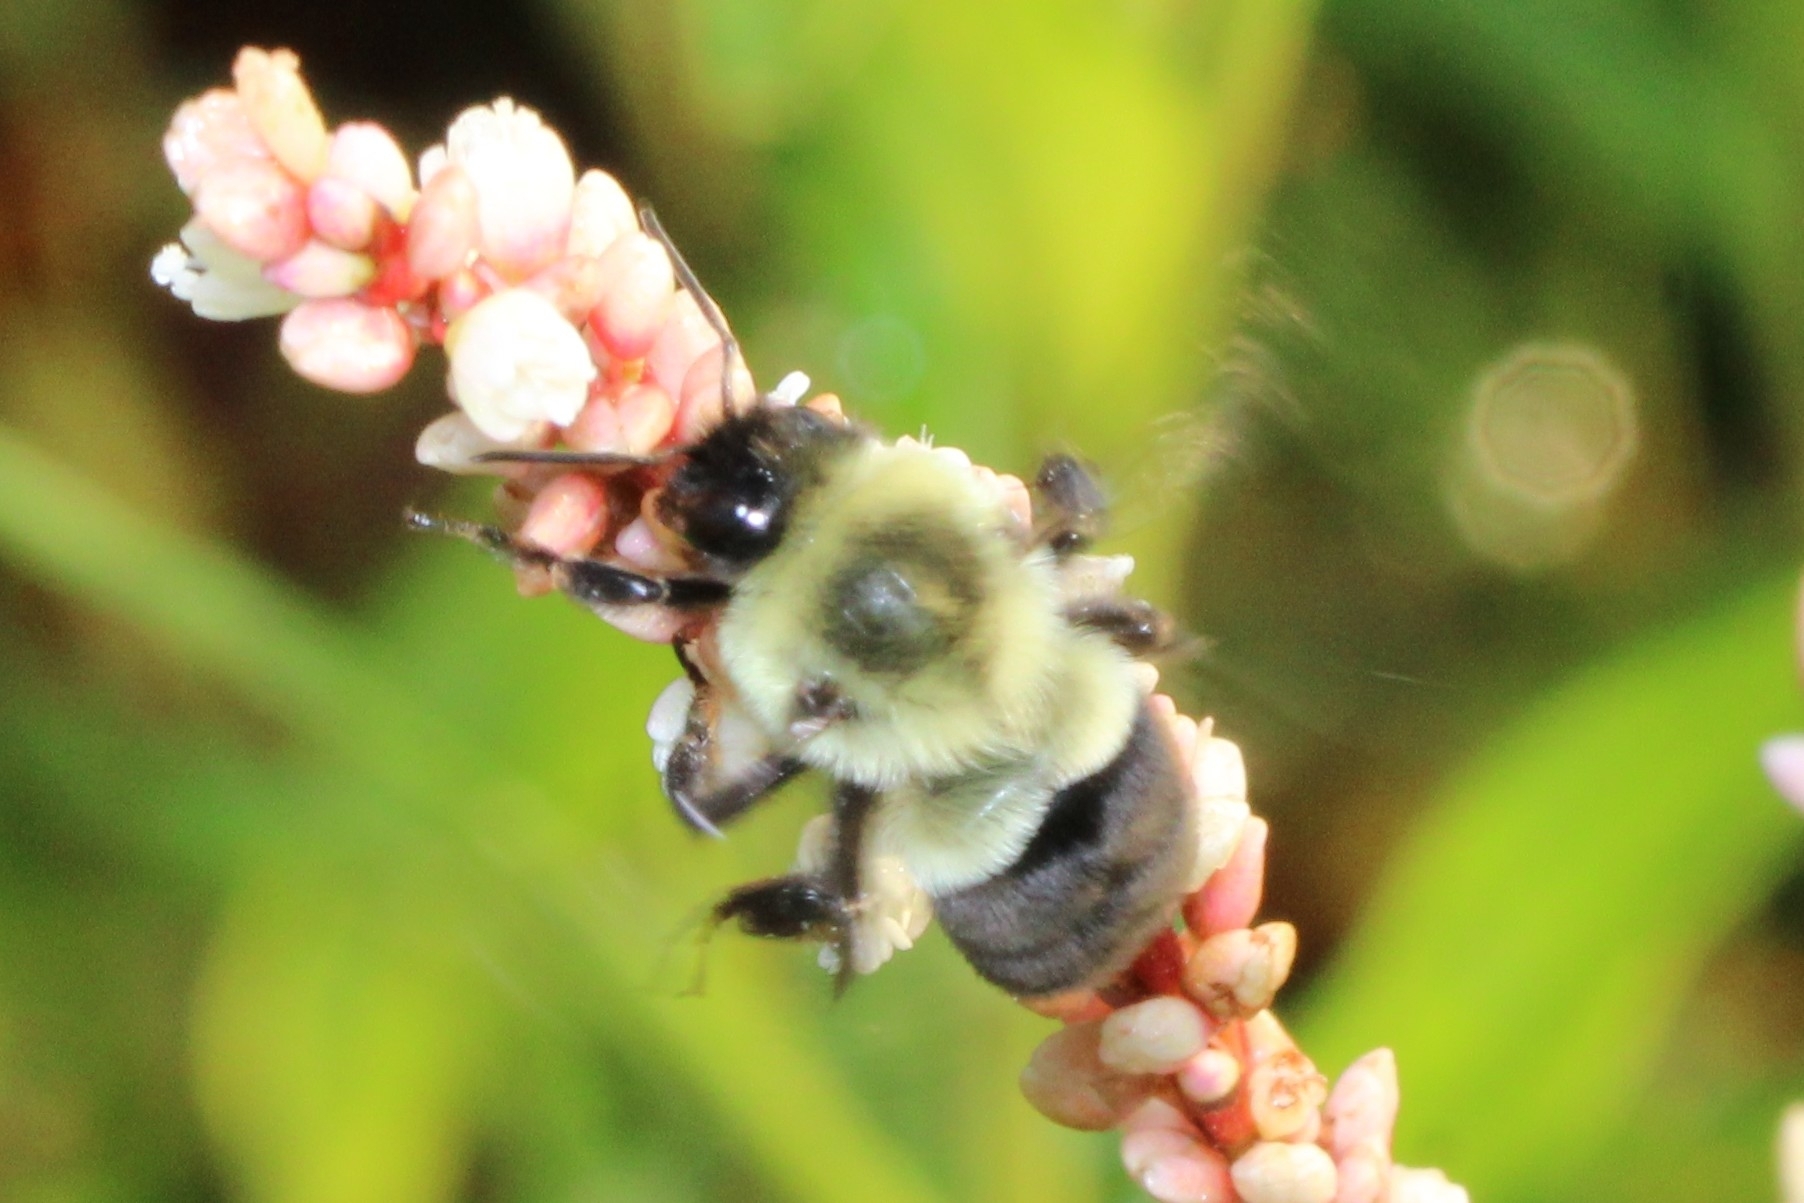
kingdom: Animalia
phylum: Arthropoda
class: Insecta
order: Hymenoptera
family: Apidae
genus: Bombus
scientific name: Bombus impatiens
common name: Common eastern bumble bee
